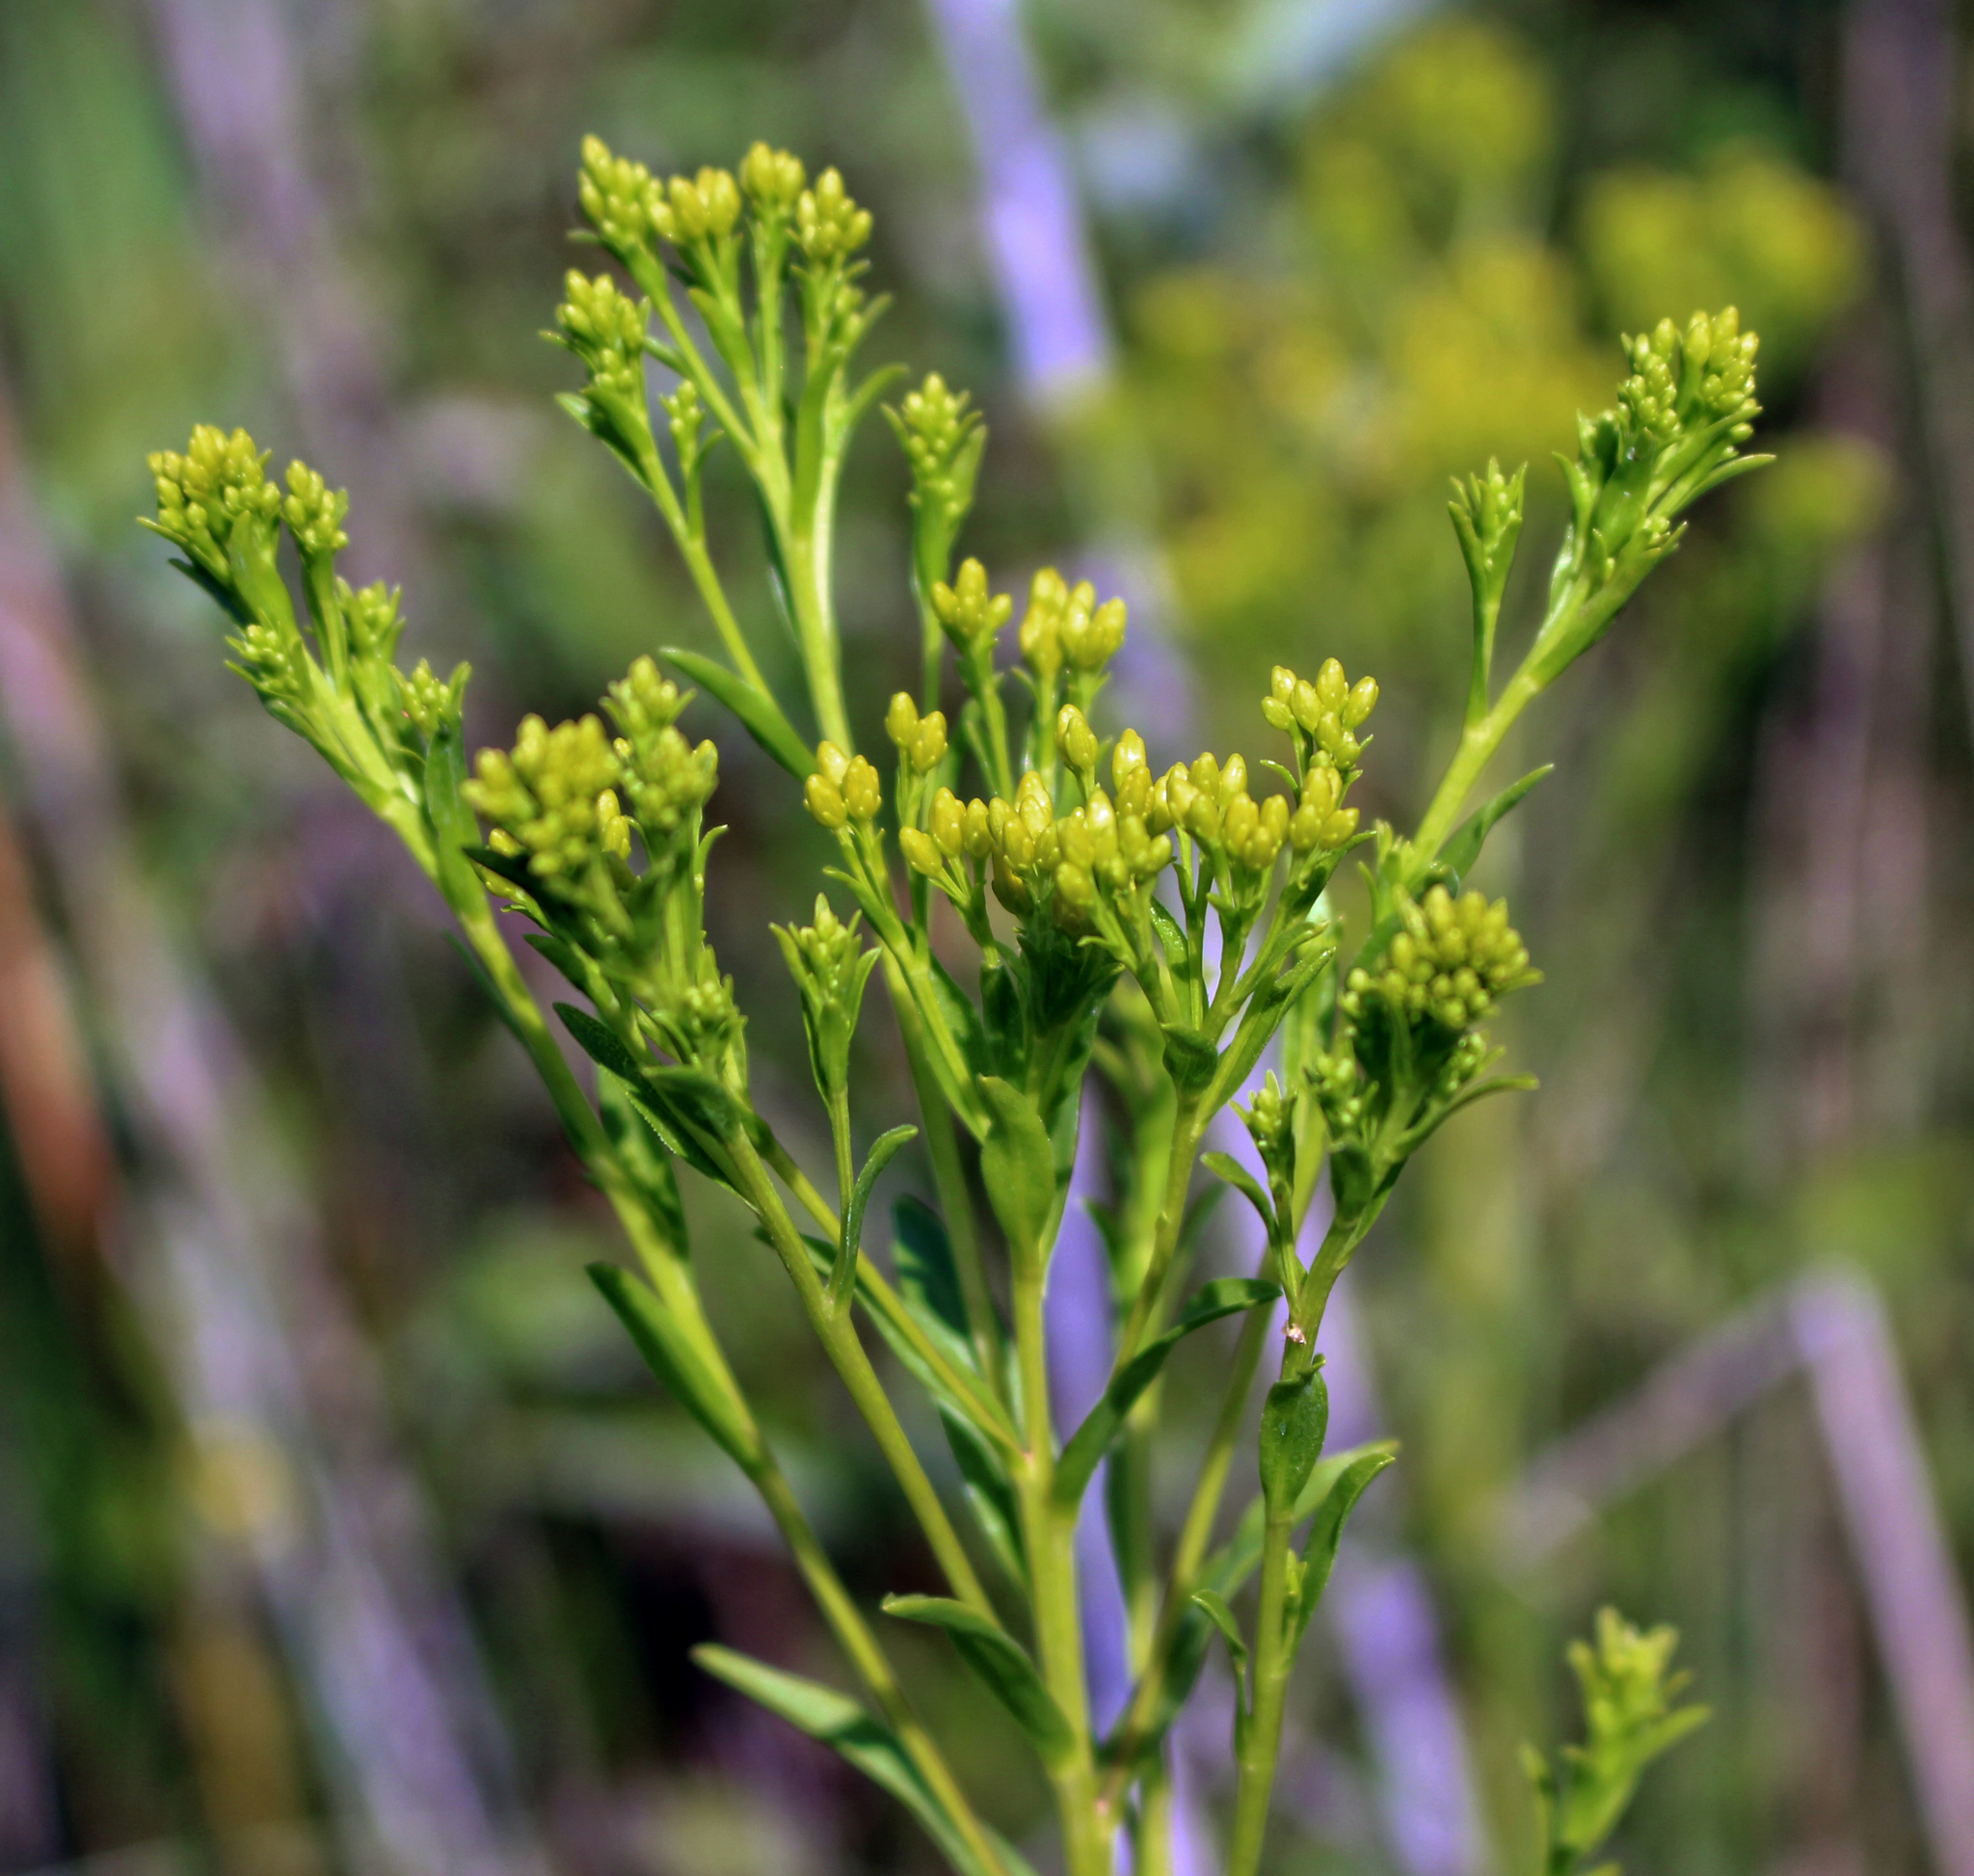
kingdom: Plantae
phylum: Tracheophyta
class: Magnoliopsida
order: Asterales
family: Asteraceae
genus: Solidago
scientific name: Solidago ohioensis
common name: Ohio goldenrod
